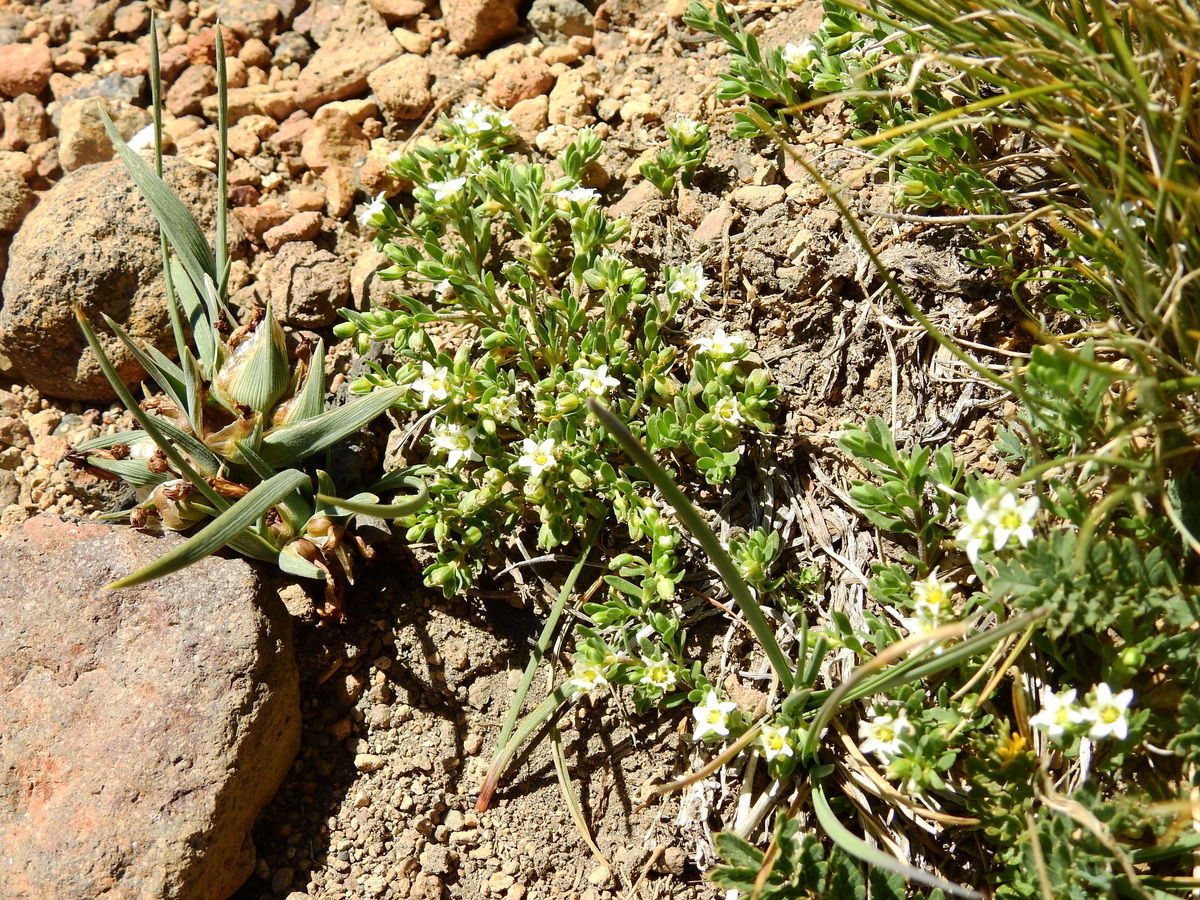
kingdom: Plantae
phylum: Tracheophyta
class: Magnoliopsida
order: Caryophyllales
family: Caryophyllaceae
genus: Arenaria
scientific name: Arenaria serpens
